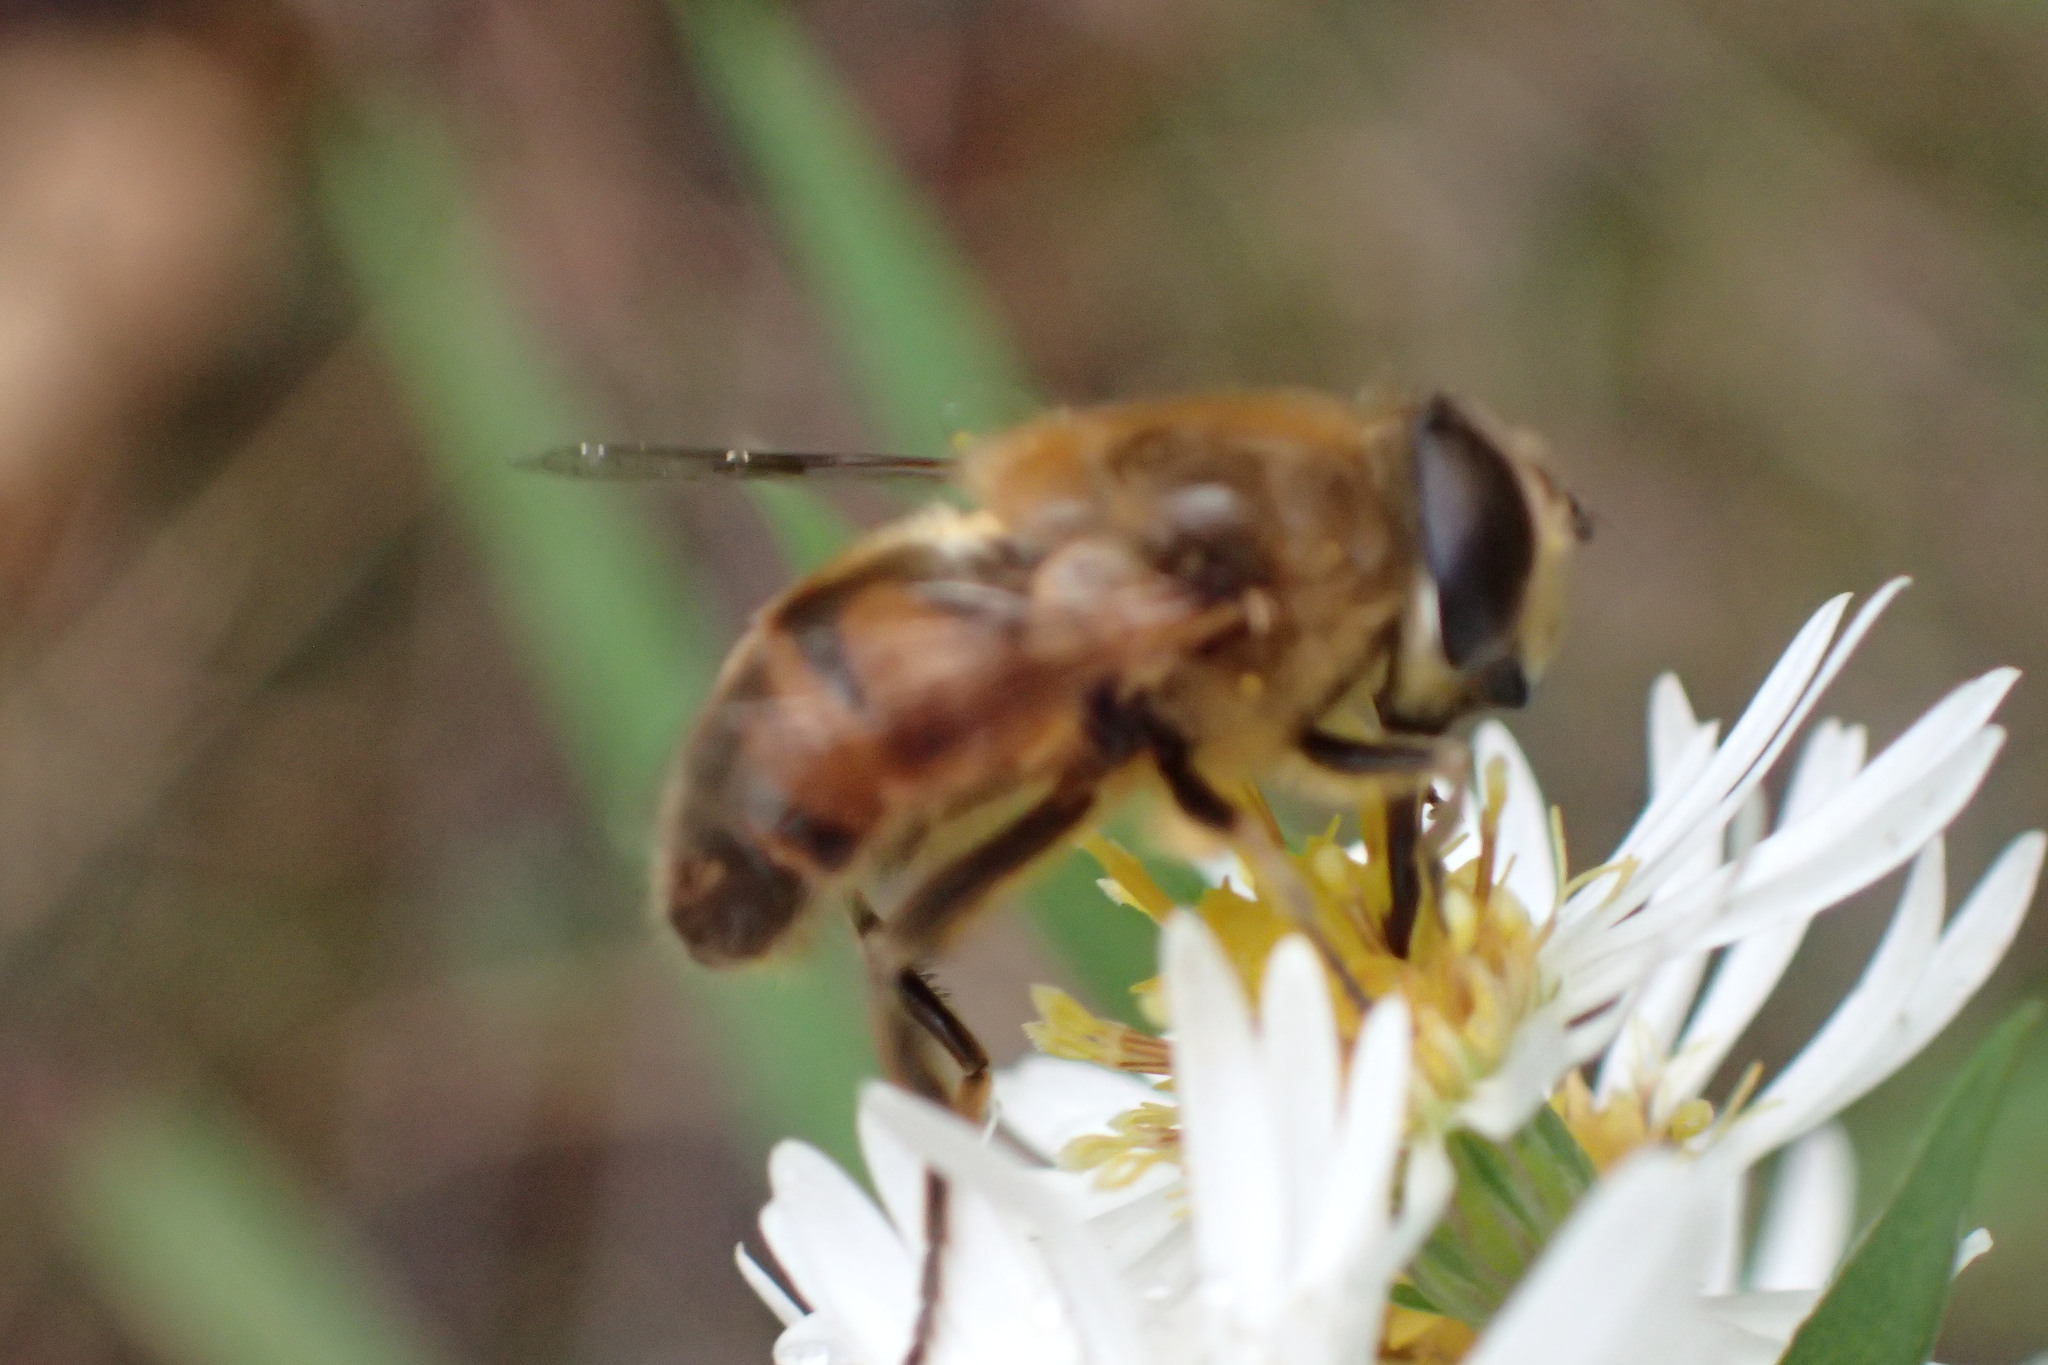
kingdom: Animalia
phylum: Arthropoda
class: Insecta
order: Diptera
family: Syrphidae
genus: Eristalis
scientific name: Eristalis tenax
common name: Drone fly
